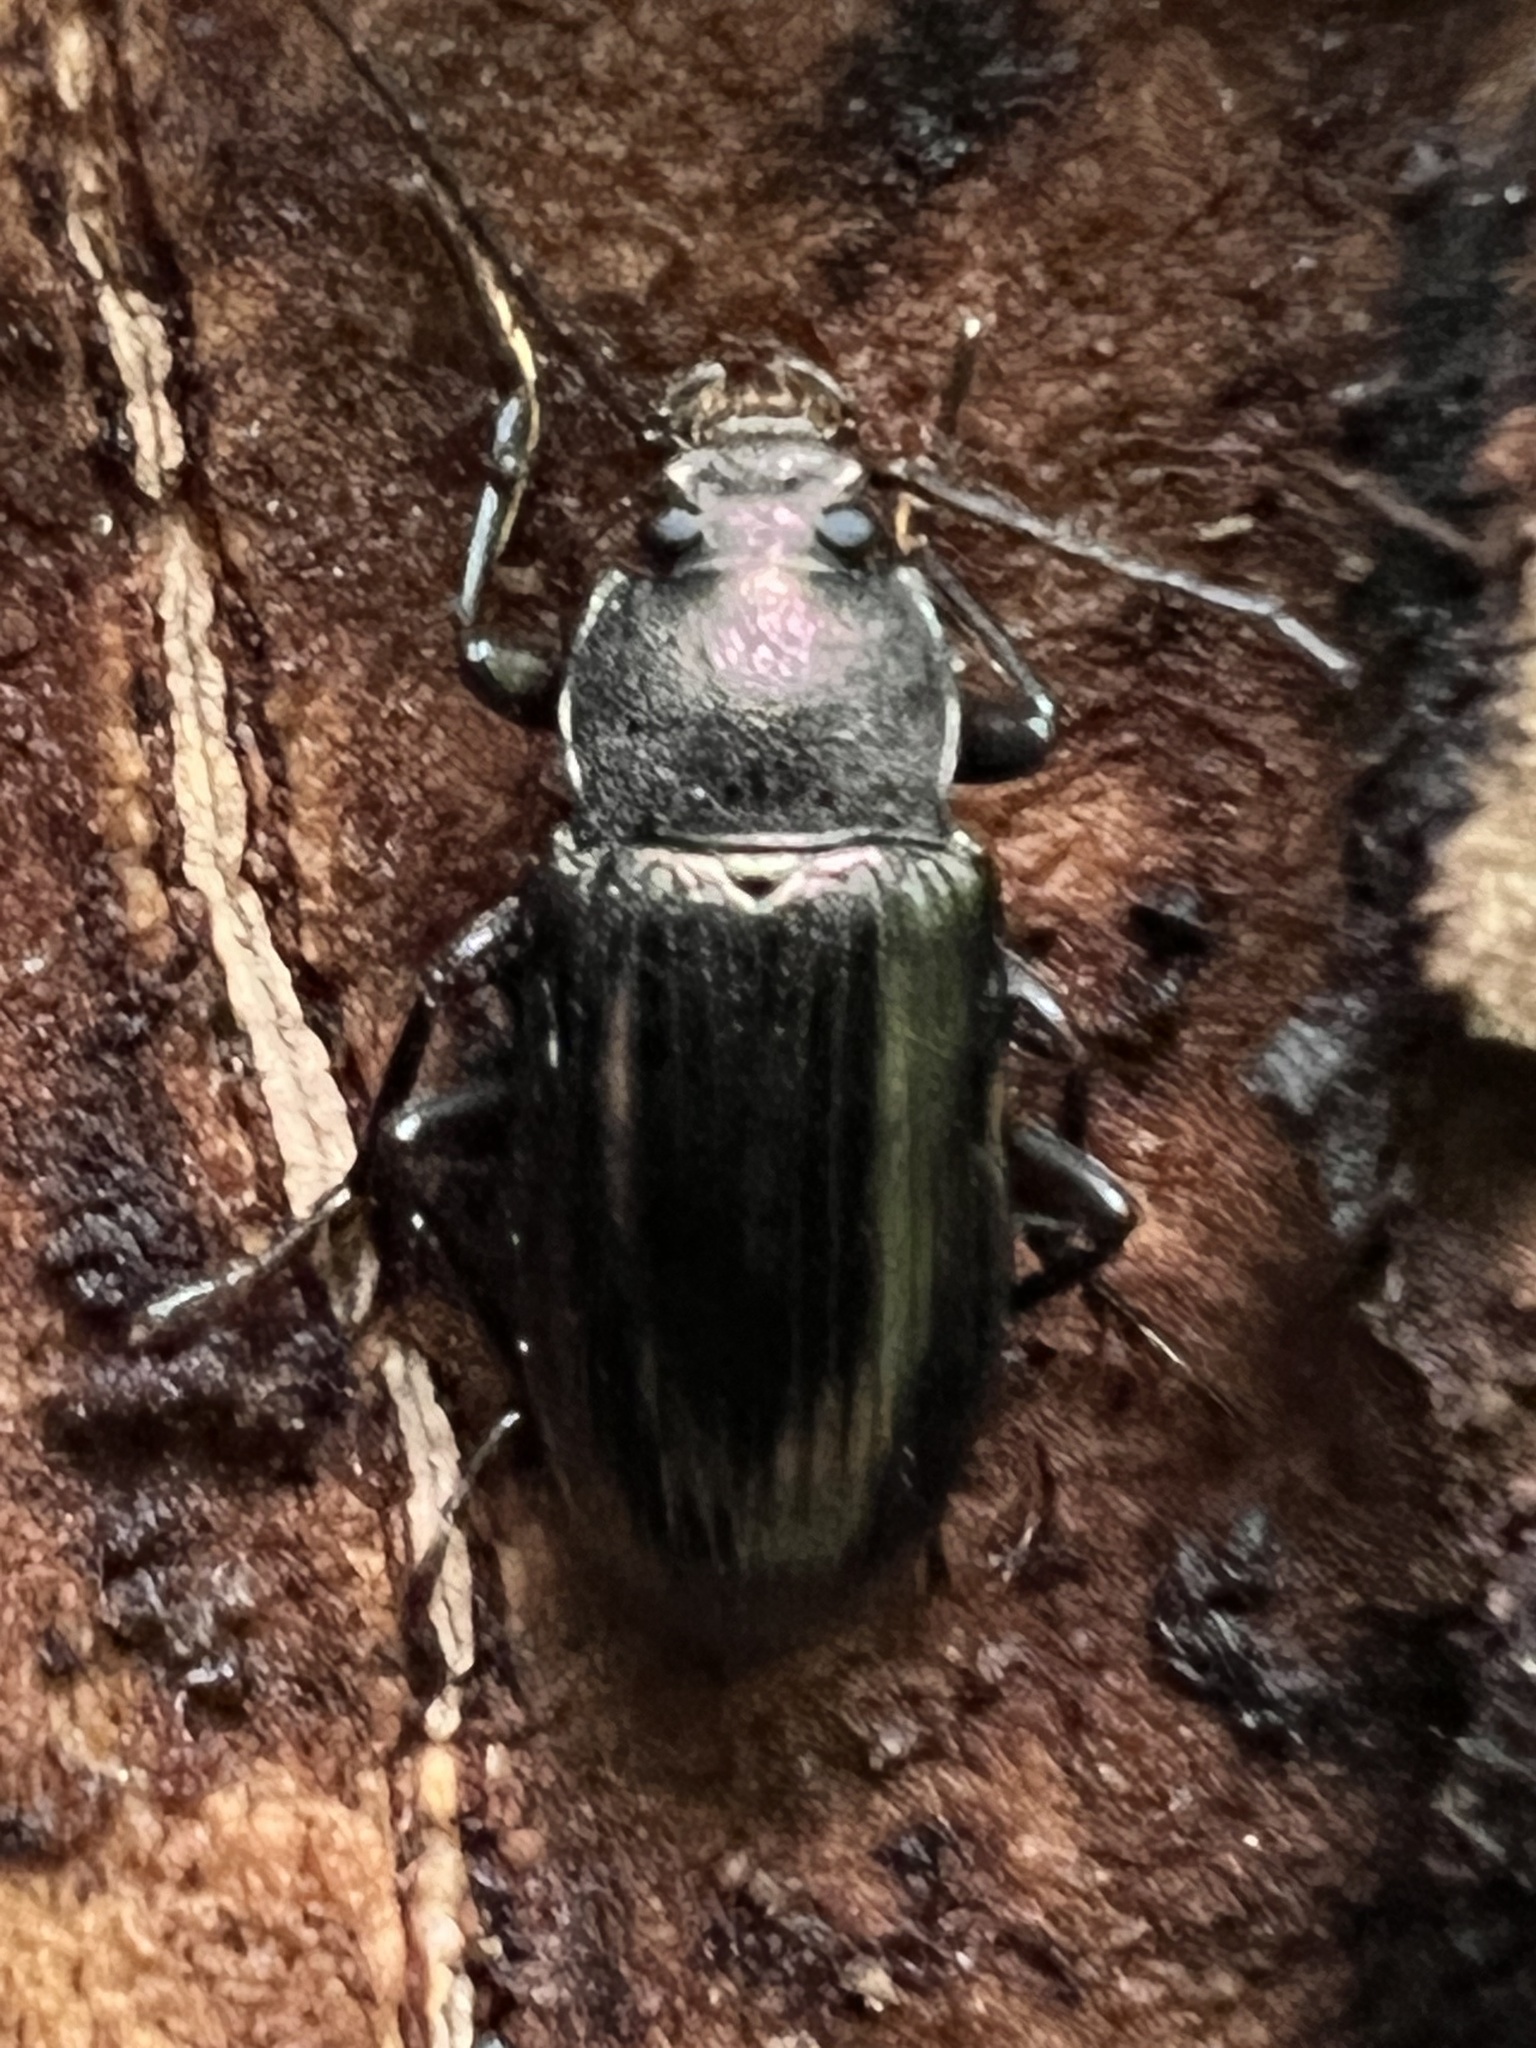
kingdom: Animalia
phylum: Arthropoda
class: Insecta
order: Coleoptera
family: Tenebrionidae
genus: Tarpela
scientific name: Tarpela undulata
